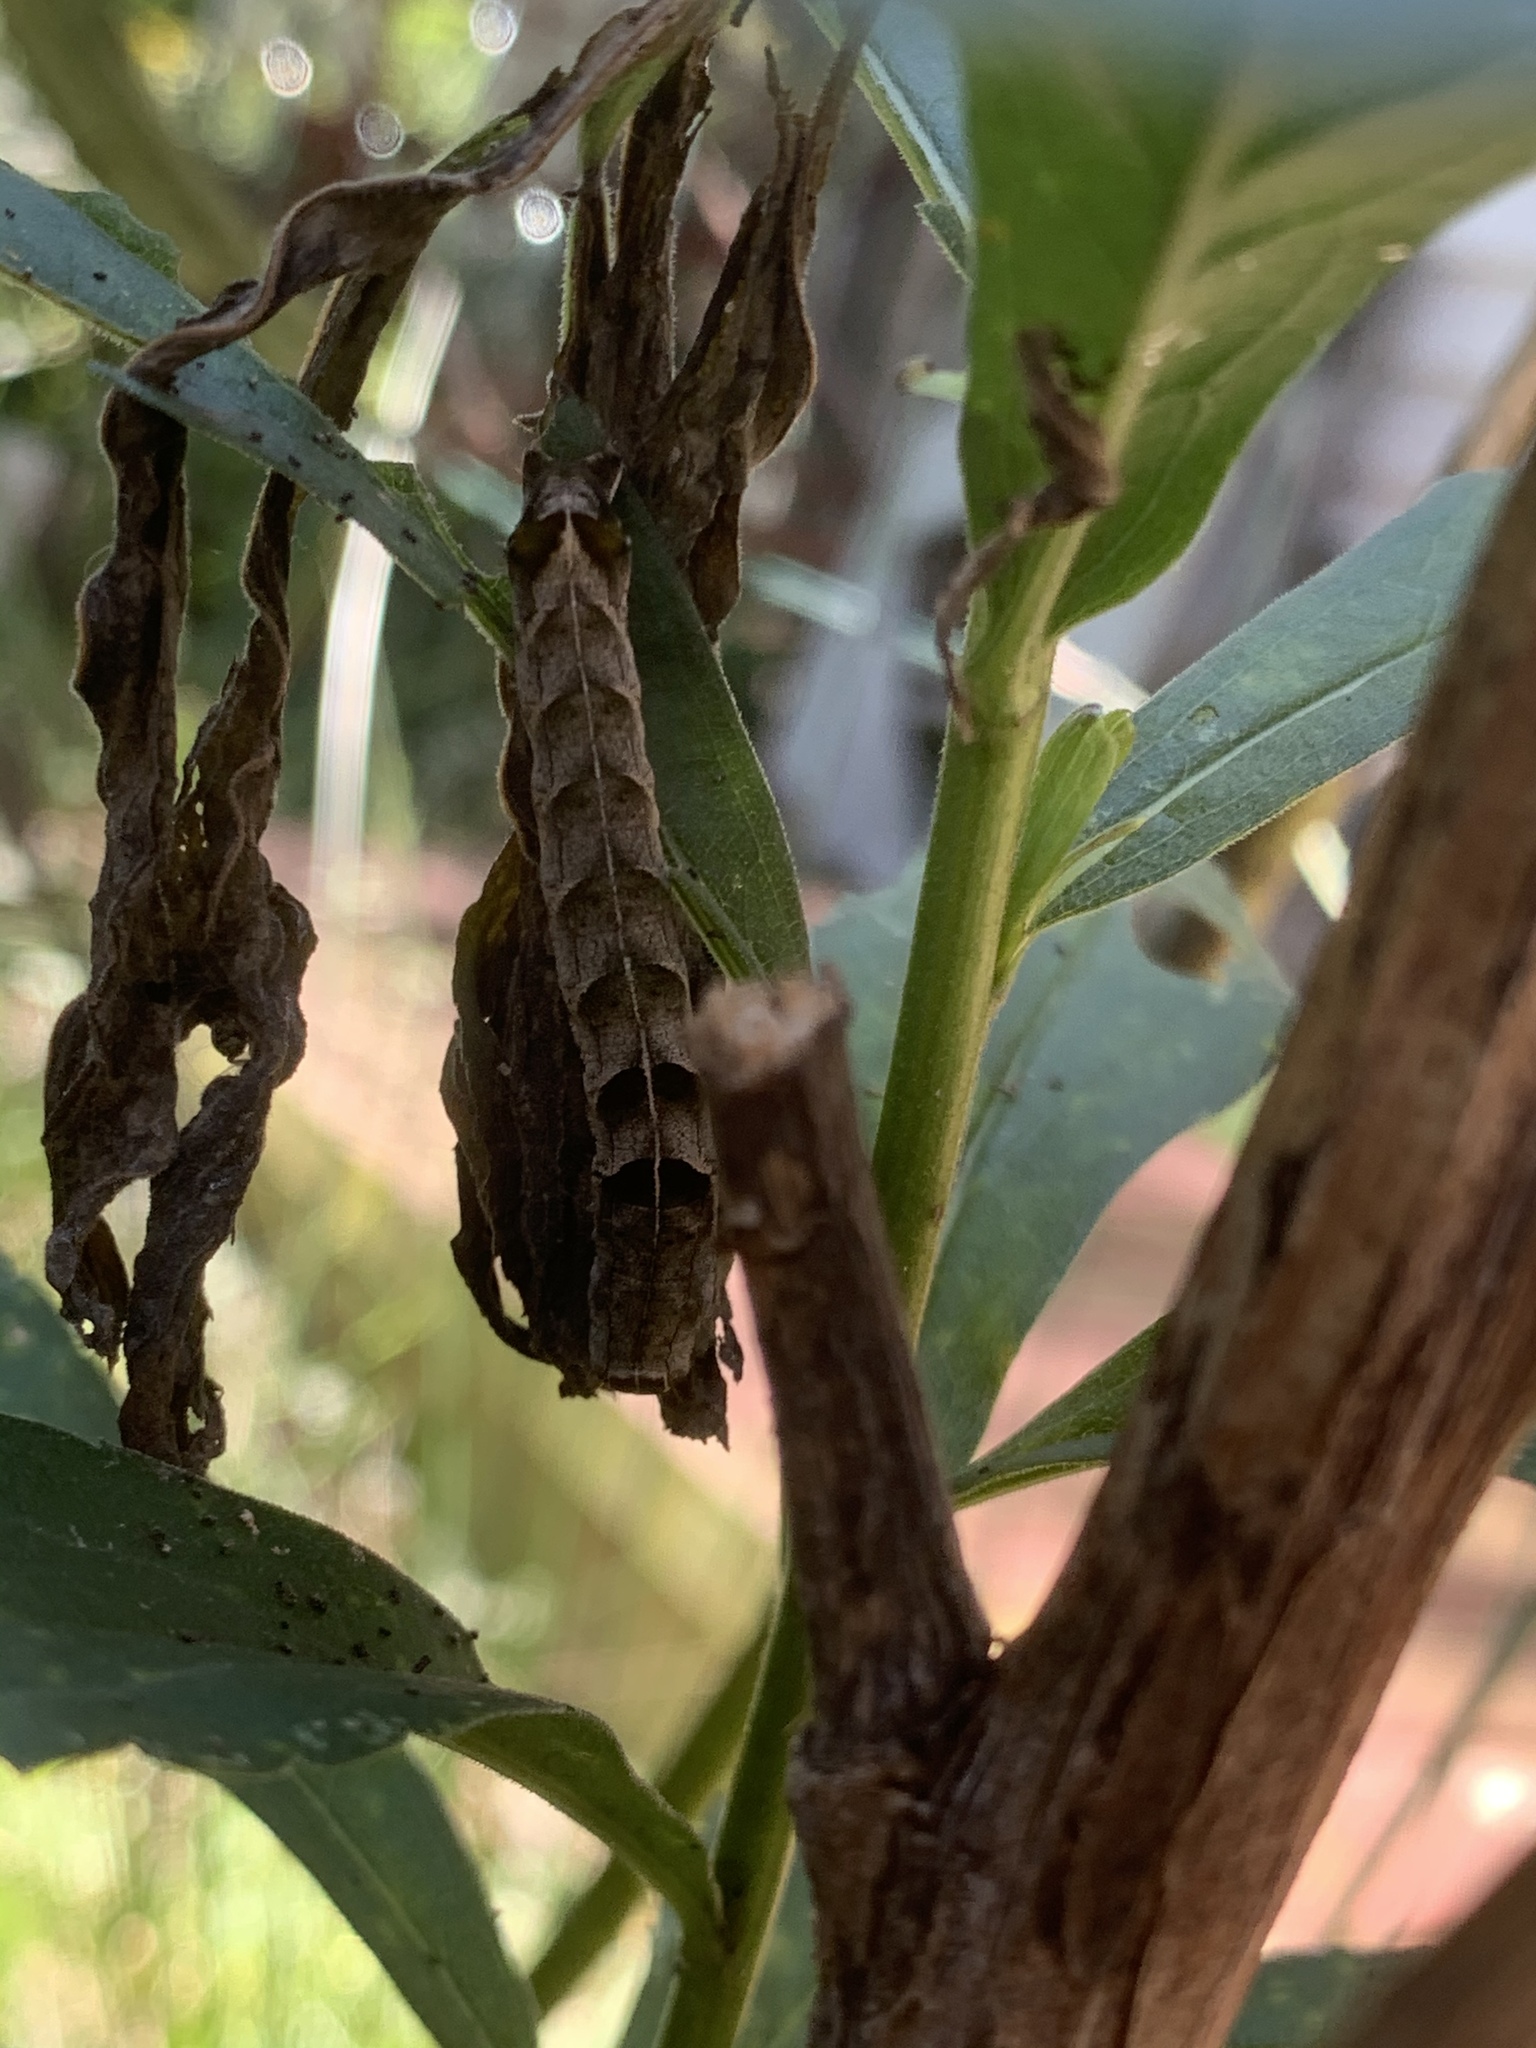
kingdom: Animalia
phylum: Arthropoda
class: Insecta
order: Lepidoptera
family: Noctuidae
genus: Melanchra
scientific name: Melanchra adjuncta
